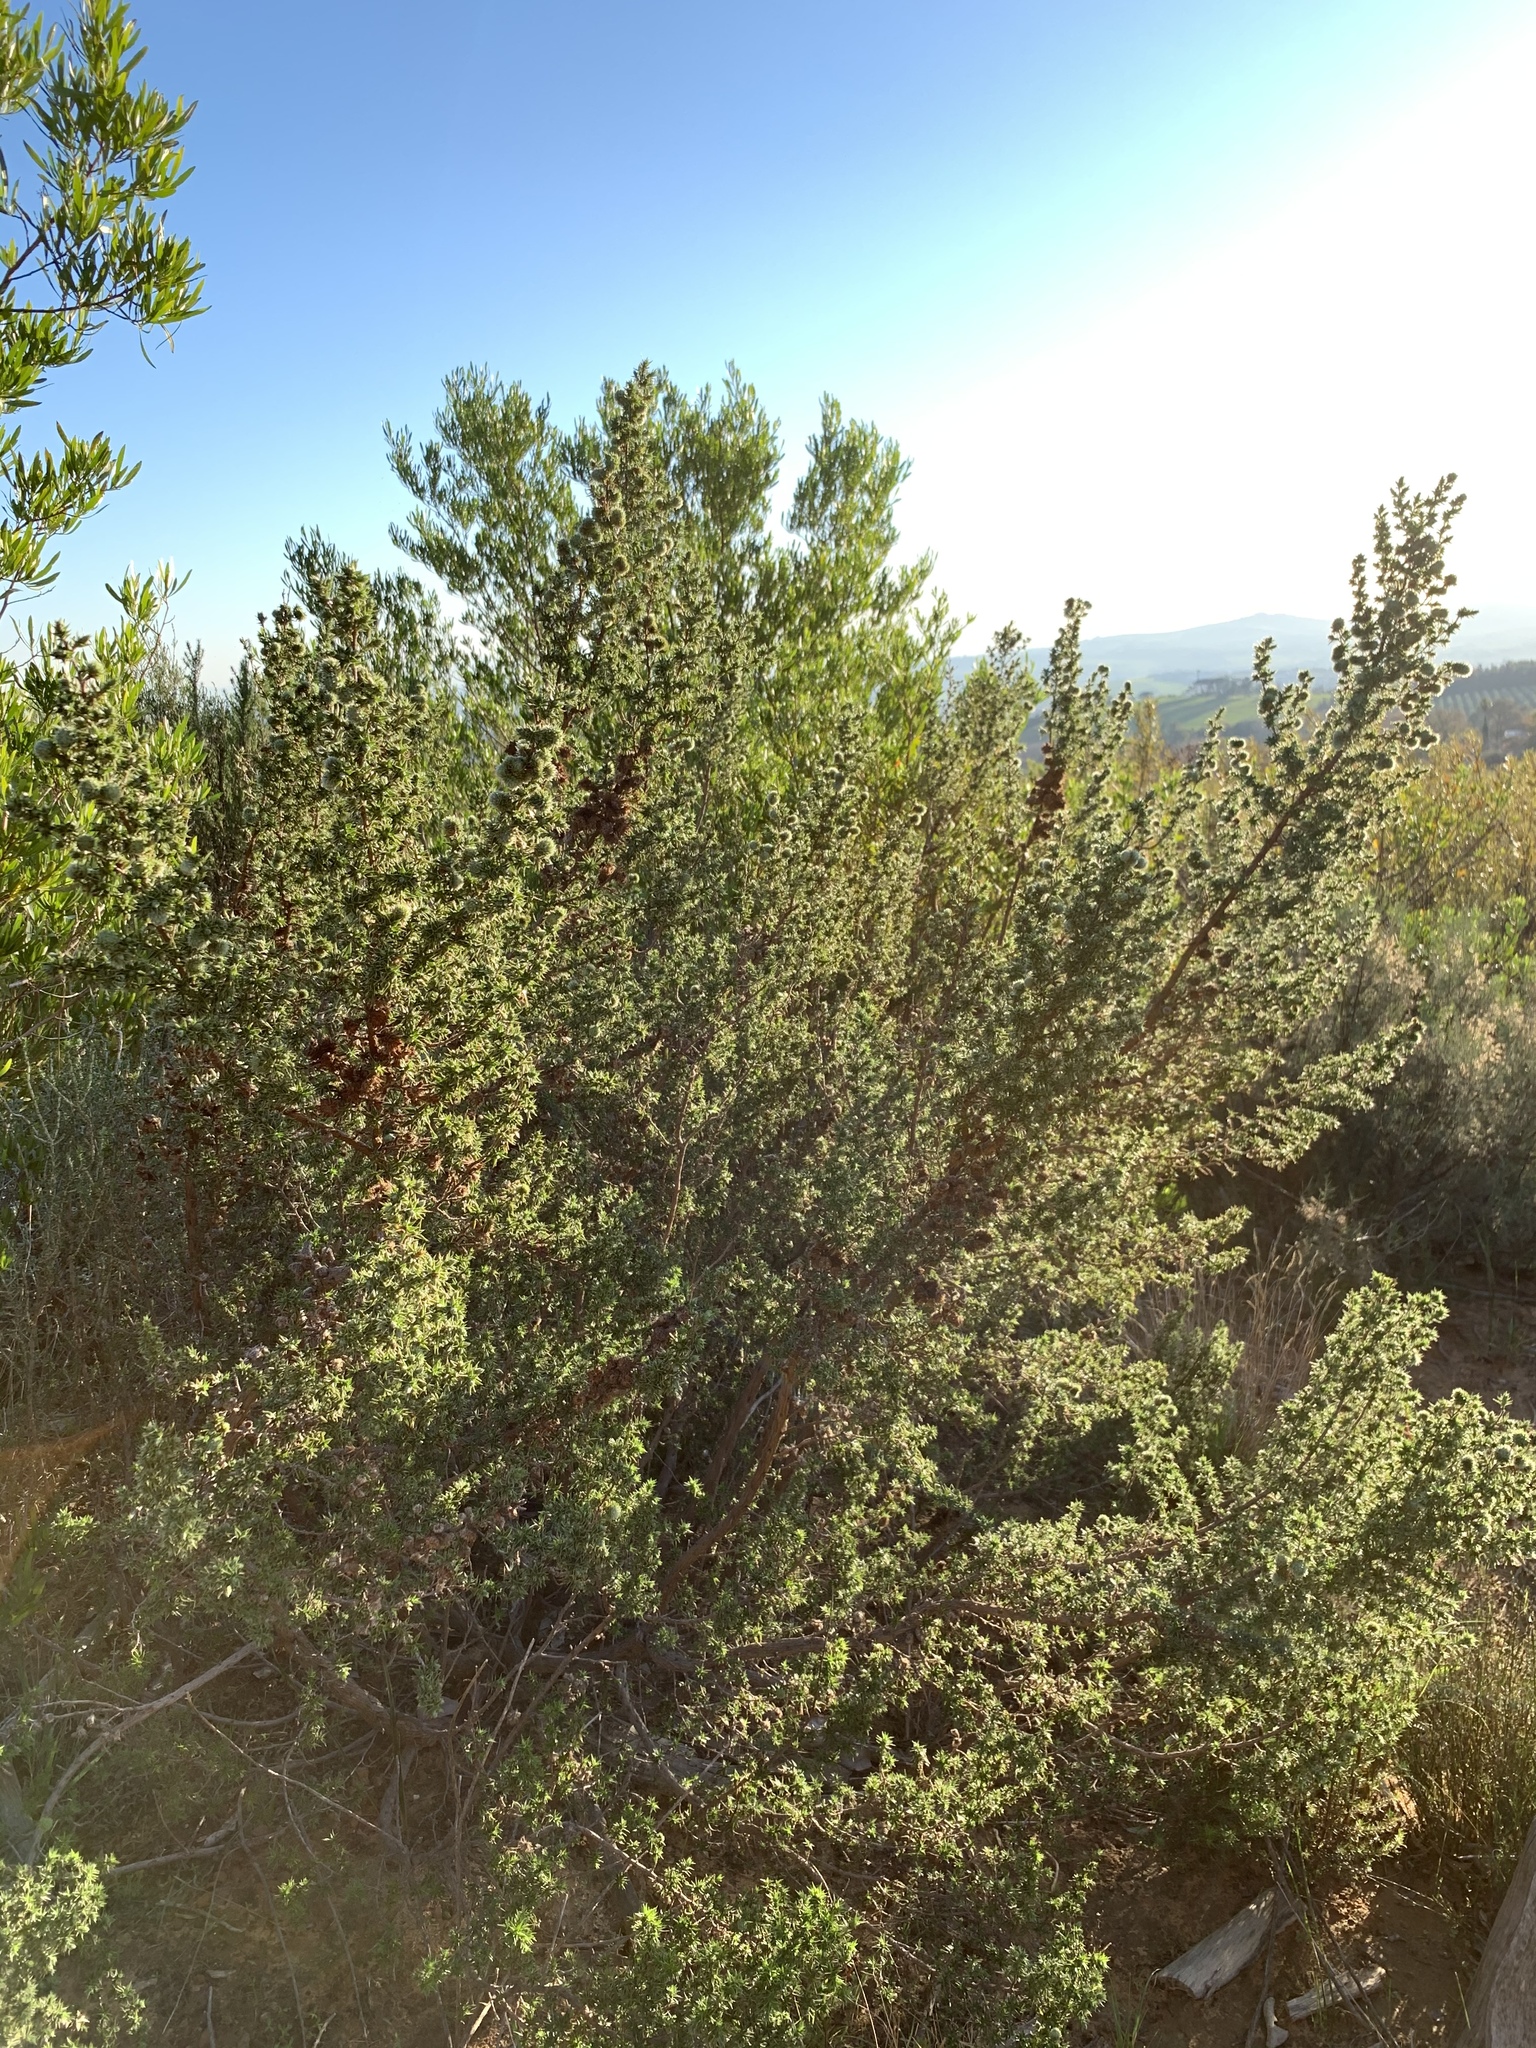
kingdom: Plantae
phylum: Tracheophyta
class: Magnoliopsida
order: Rosales
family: Rosaceae
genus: Cliffortia
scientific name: Cliffortia ruscifolia
